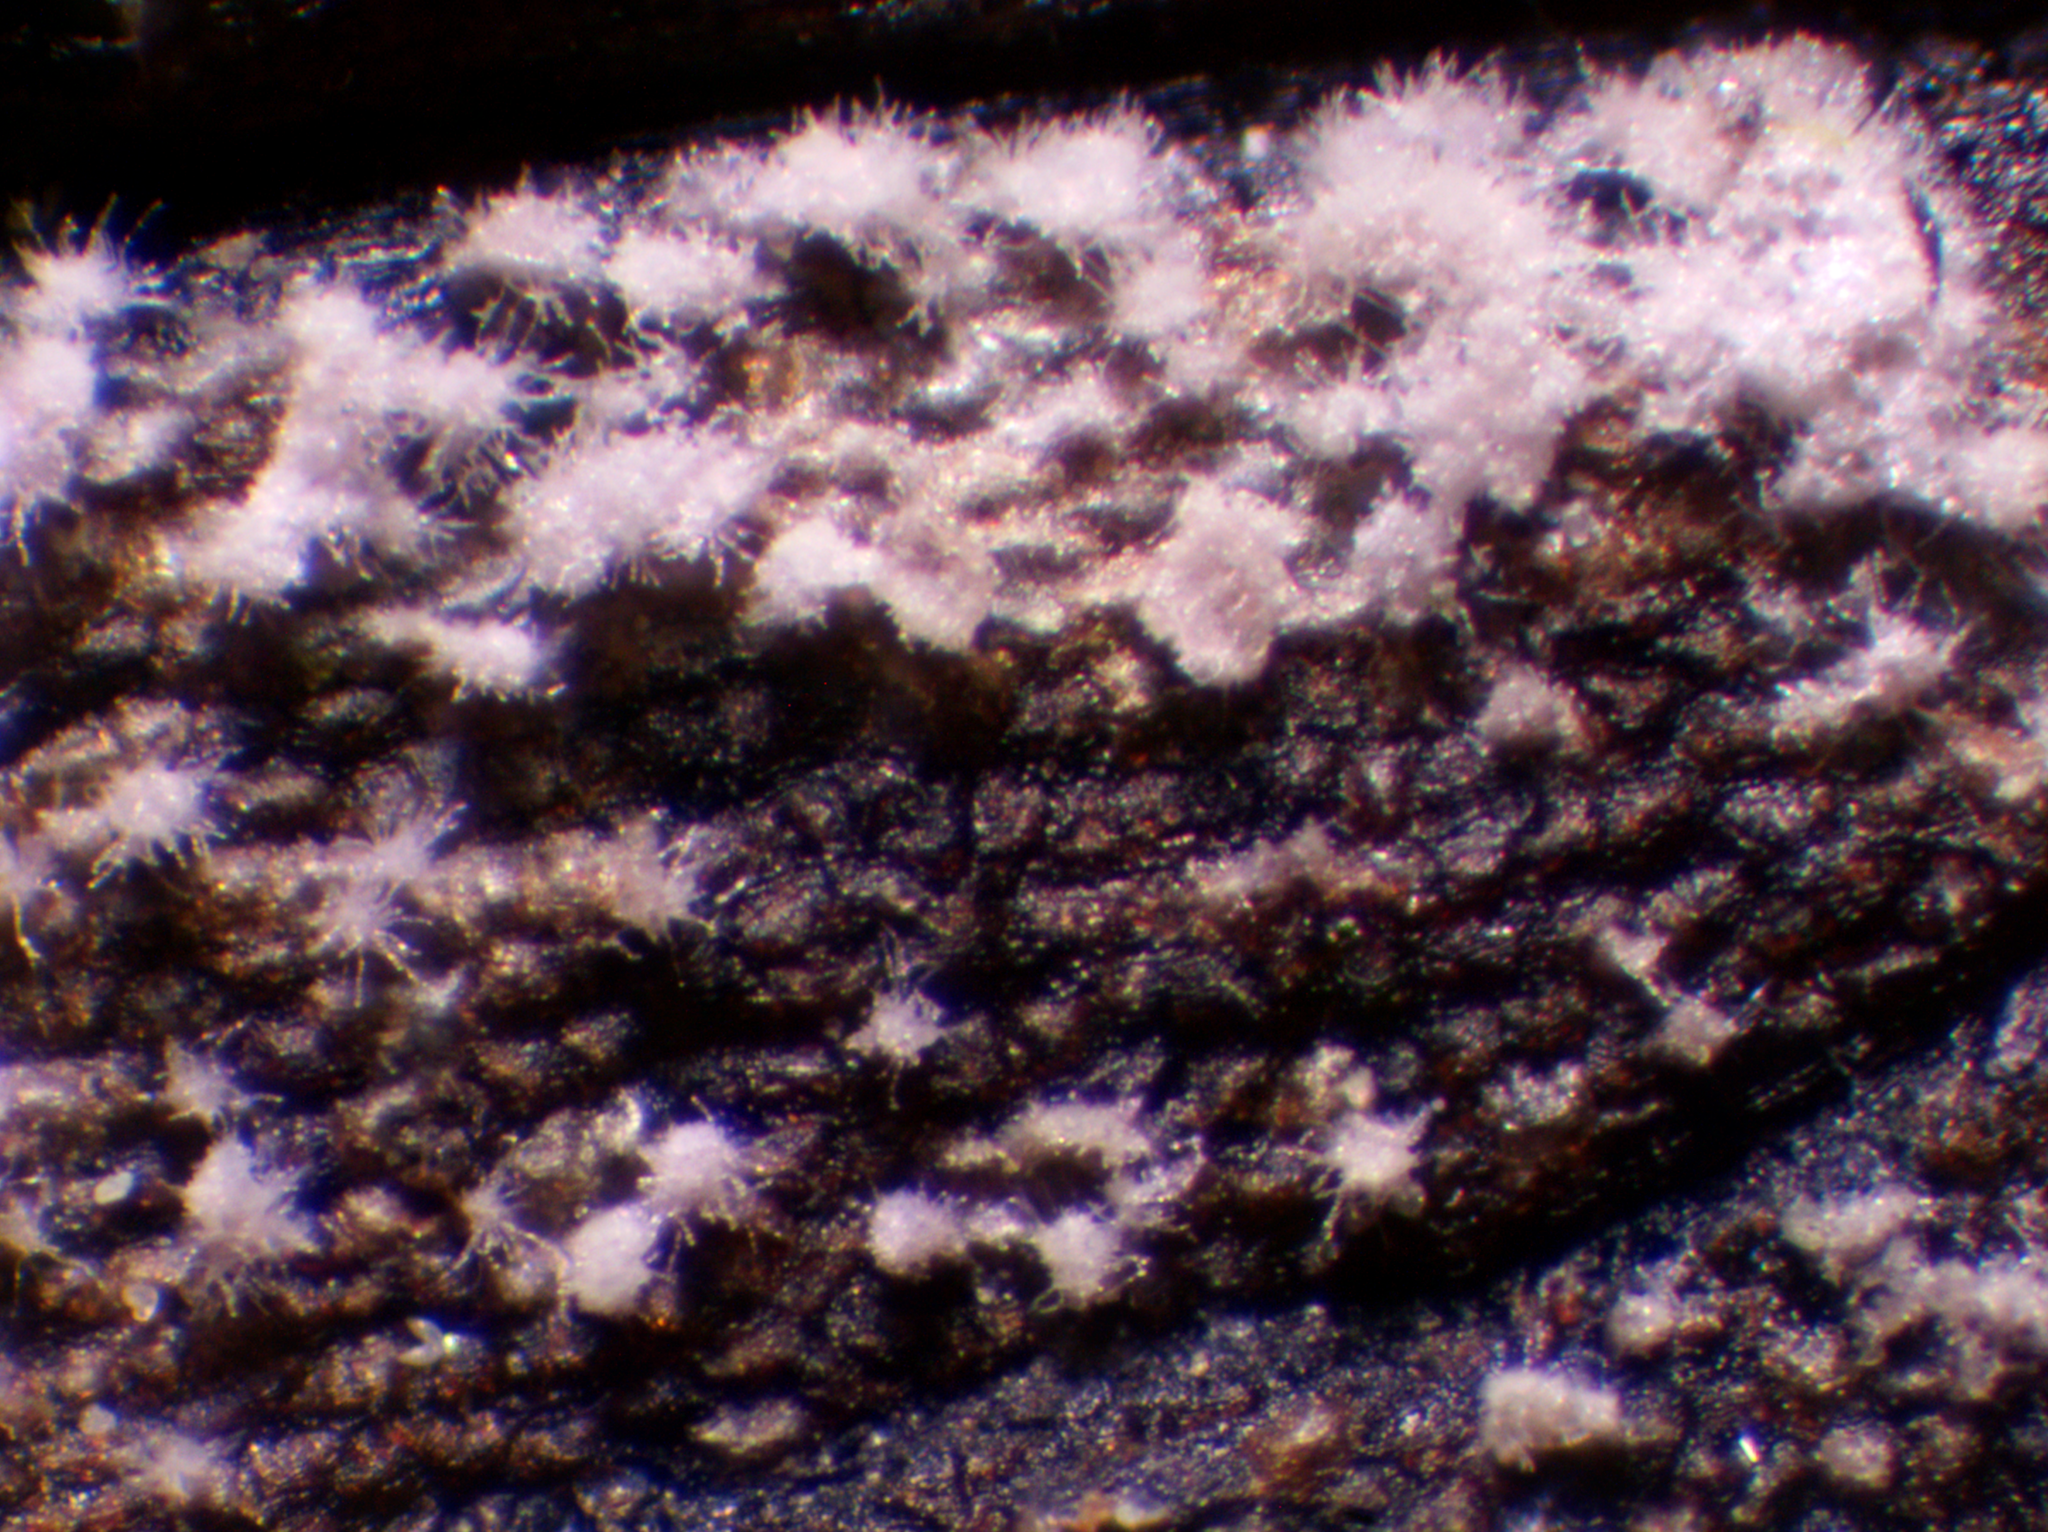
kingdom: Fungi
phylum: Ascomycota
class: Dothideomycetes
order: Mycosphaerellales
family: Mycosphaerellaceae
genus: Ramularia
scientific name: Ramularia hellebori
